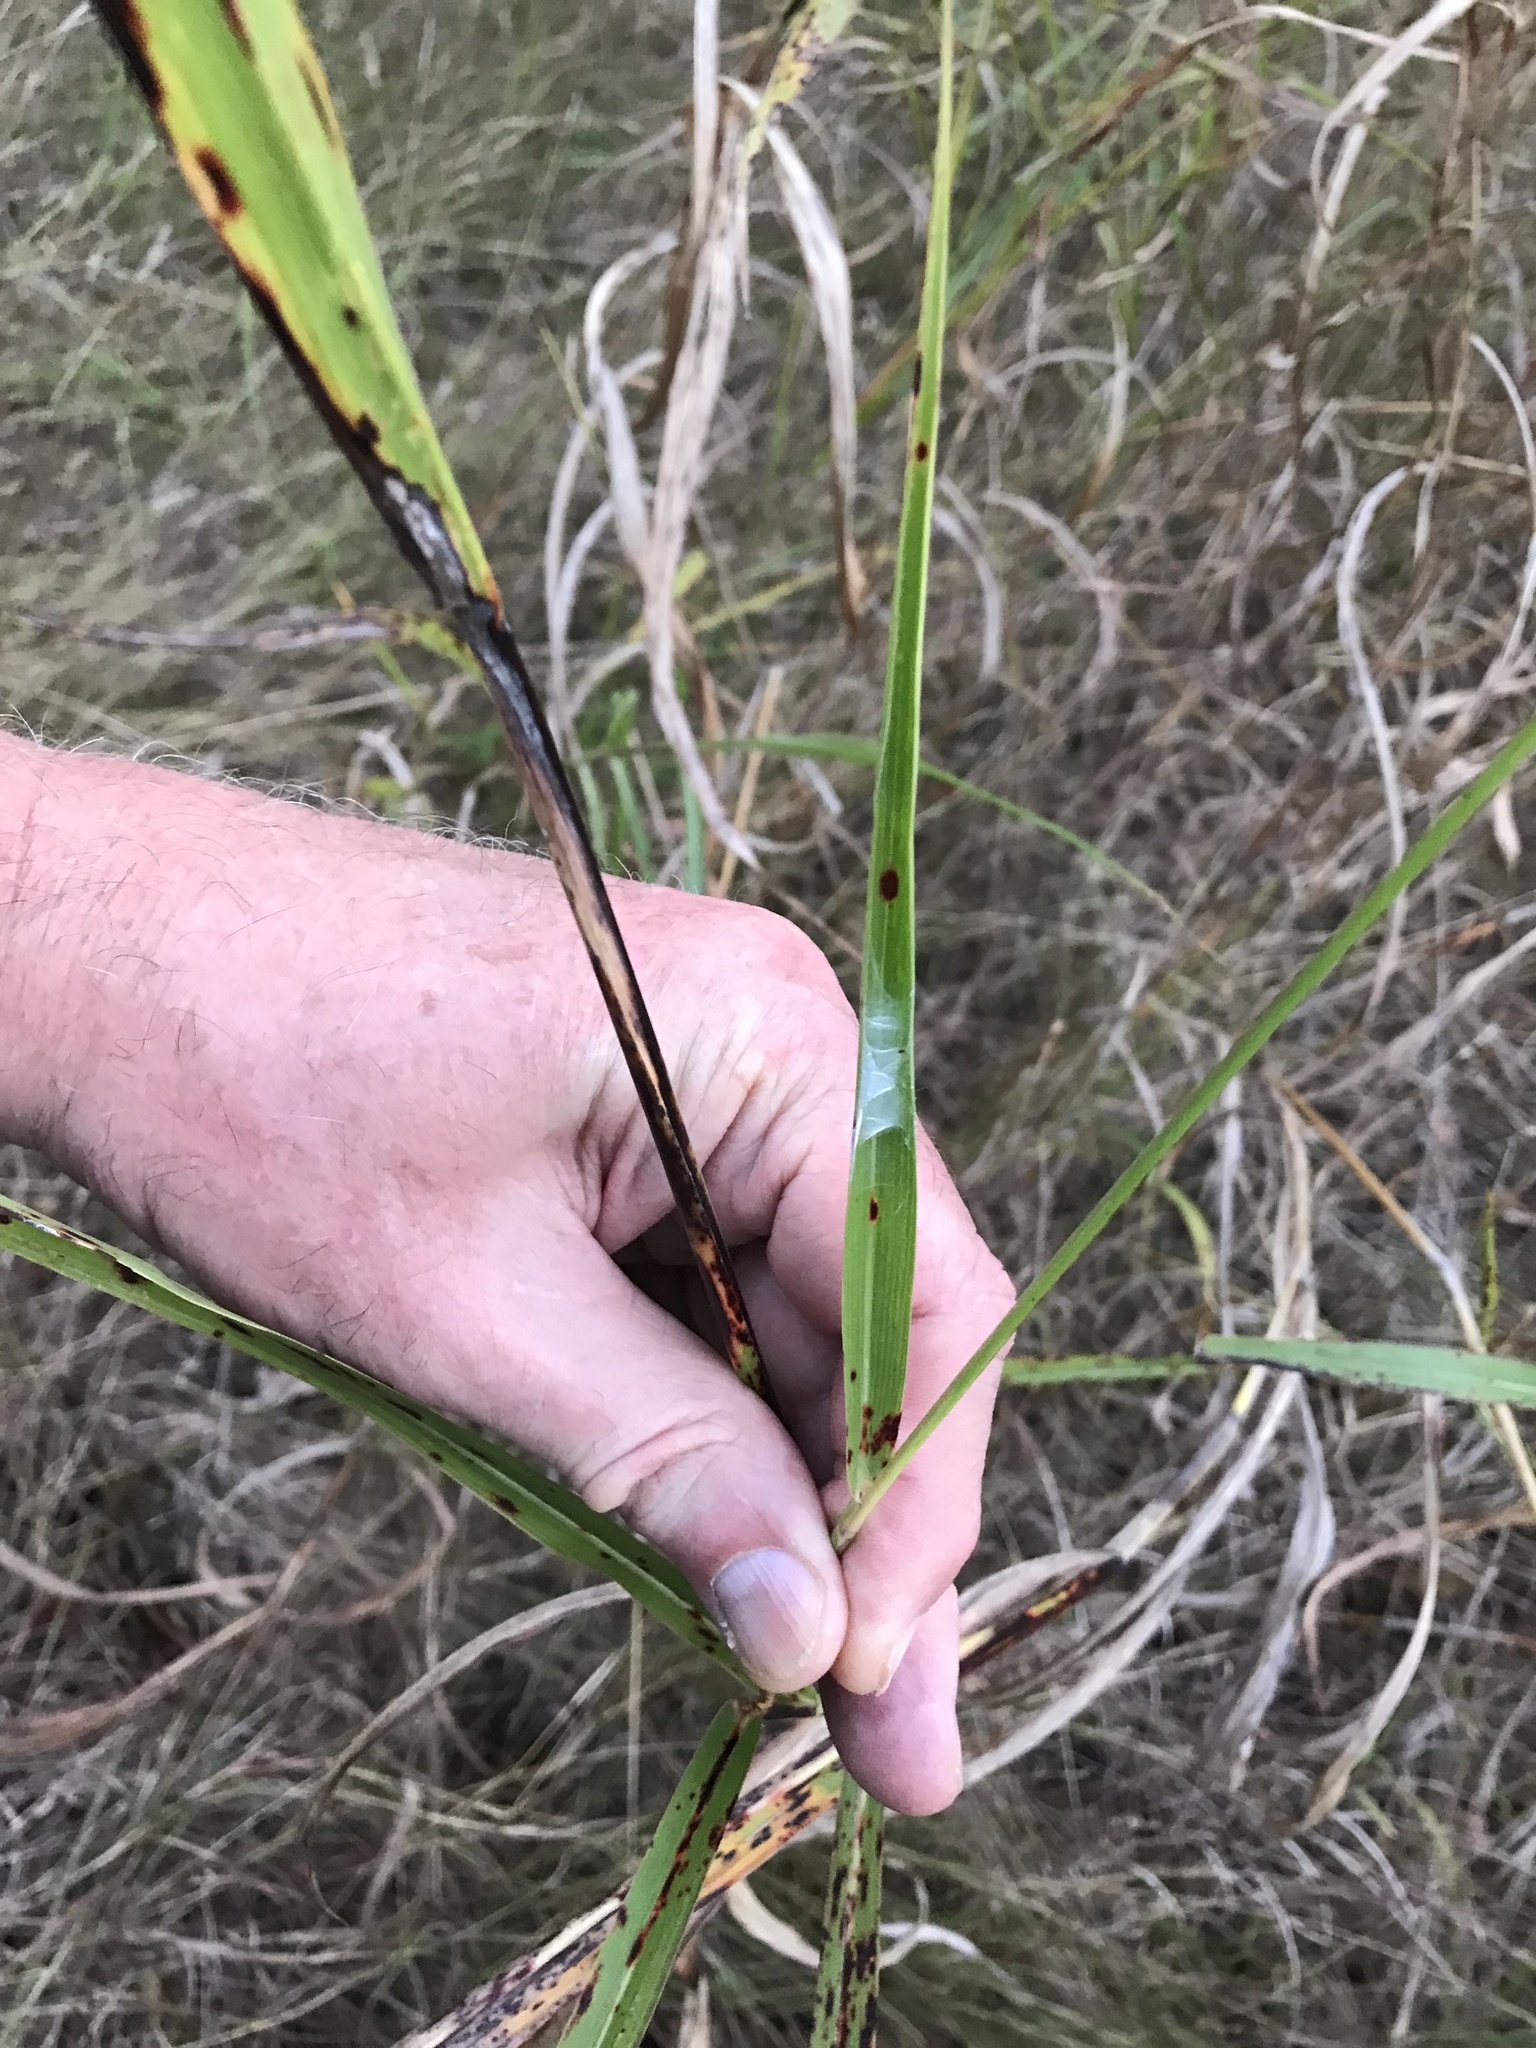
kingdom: Plantae
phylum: Tracheophyta
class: Liliopsida
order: Poales
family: Poaceae
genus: Sorghum
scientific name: Sorghum halepense
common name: Johnson-grass
